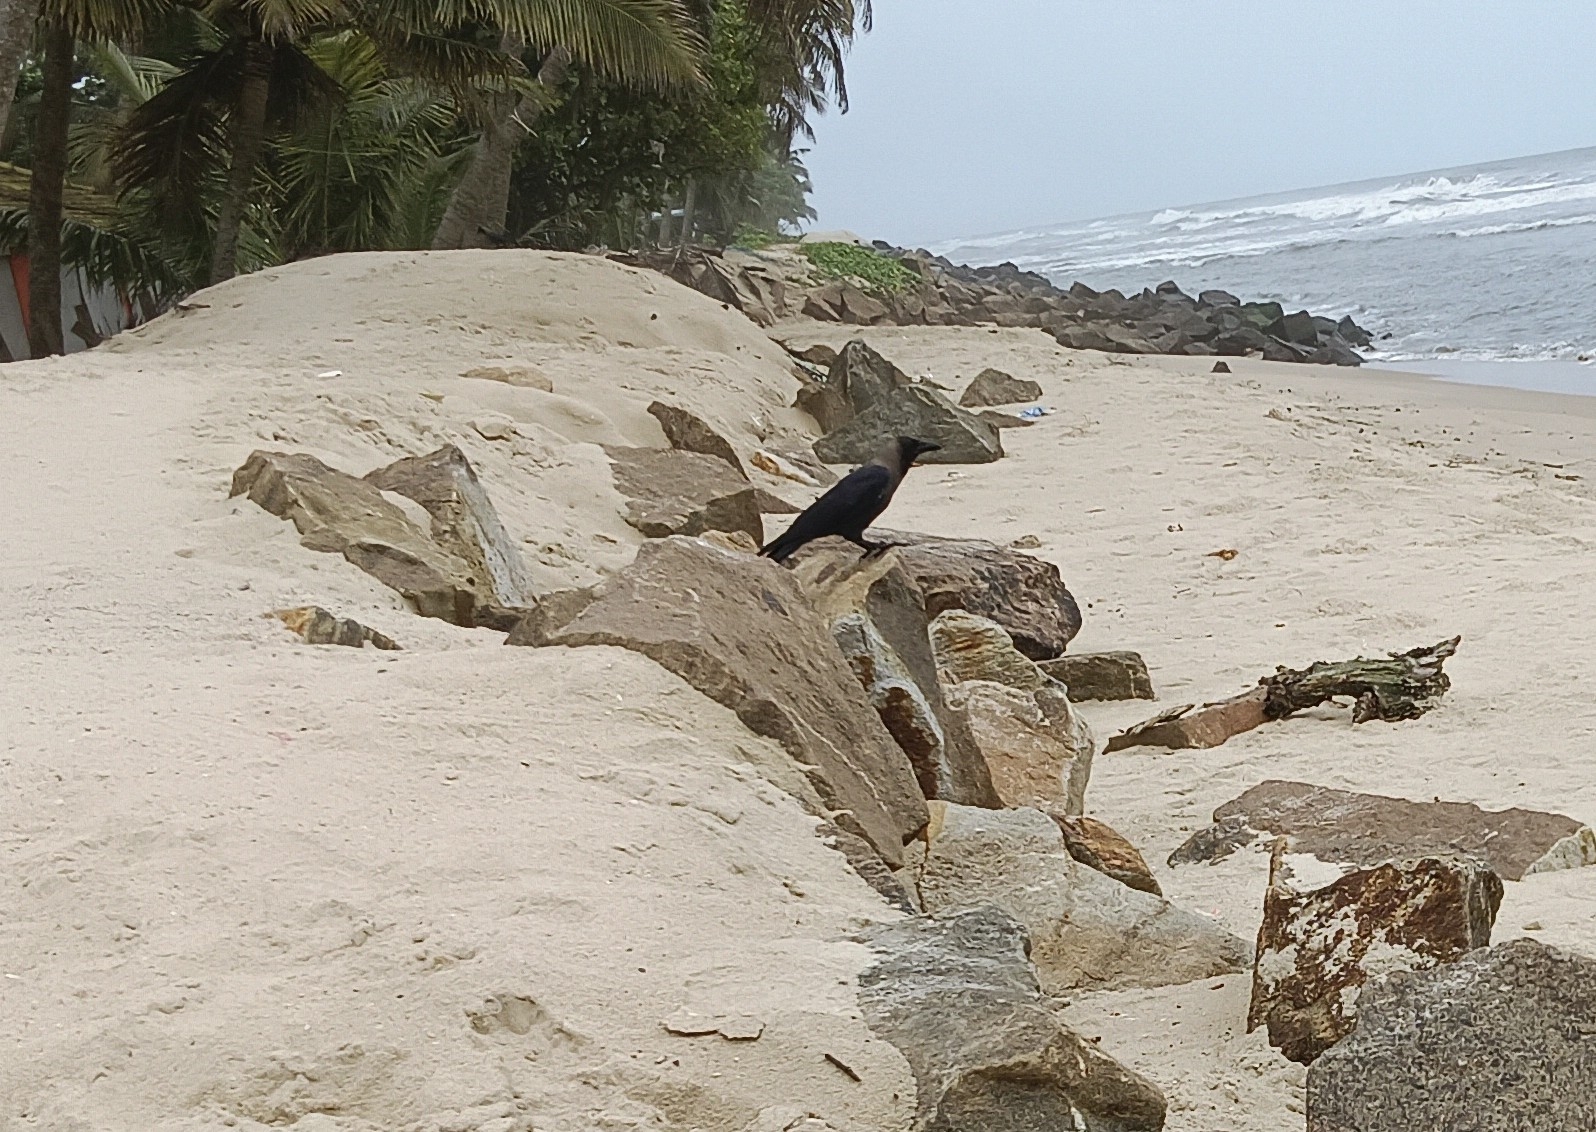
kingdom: Animalia
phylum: Chordata
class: Aves
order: Passeriformes
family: Corvidae
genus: Corvus
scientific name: Corvus splendens
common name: House crow
